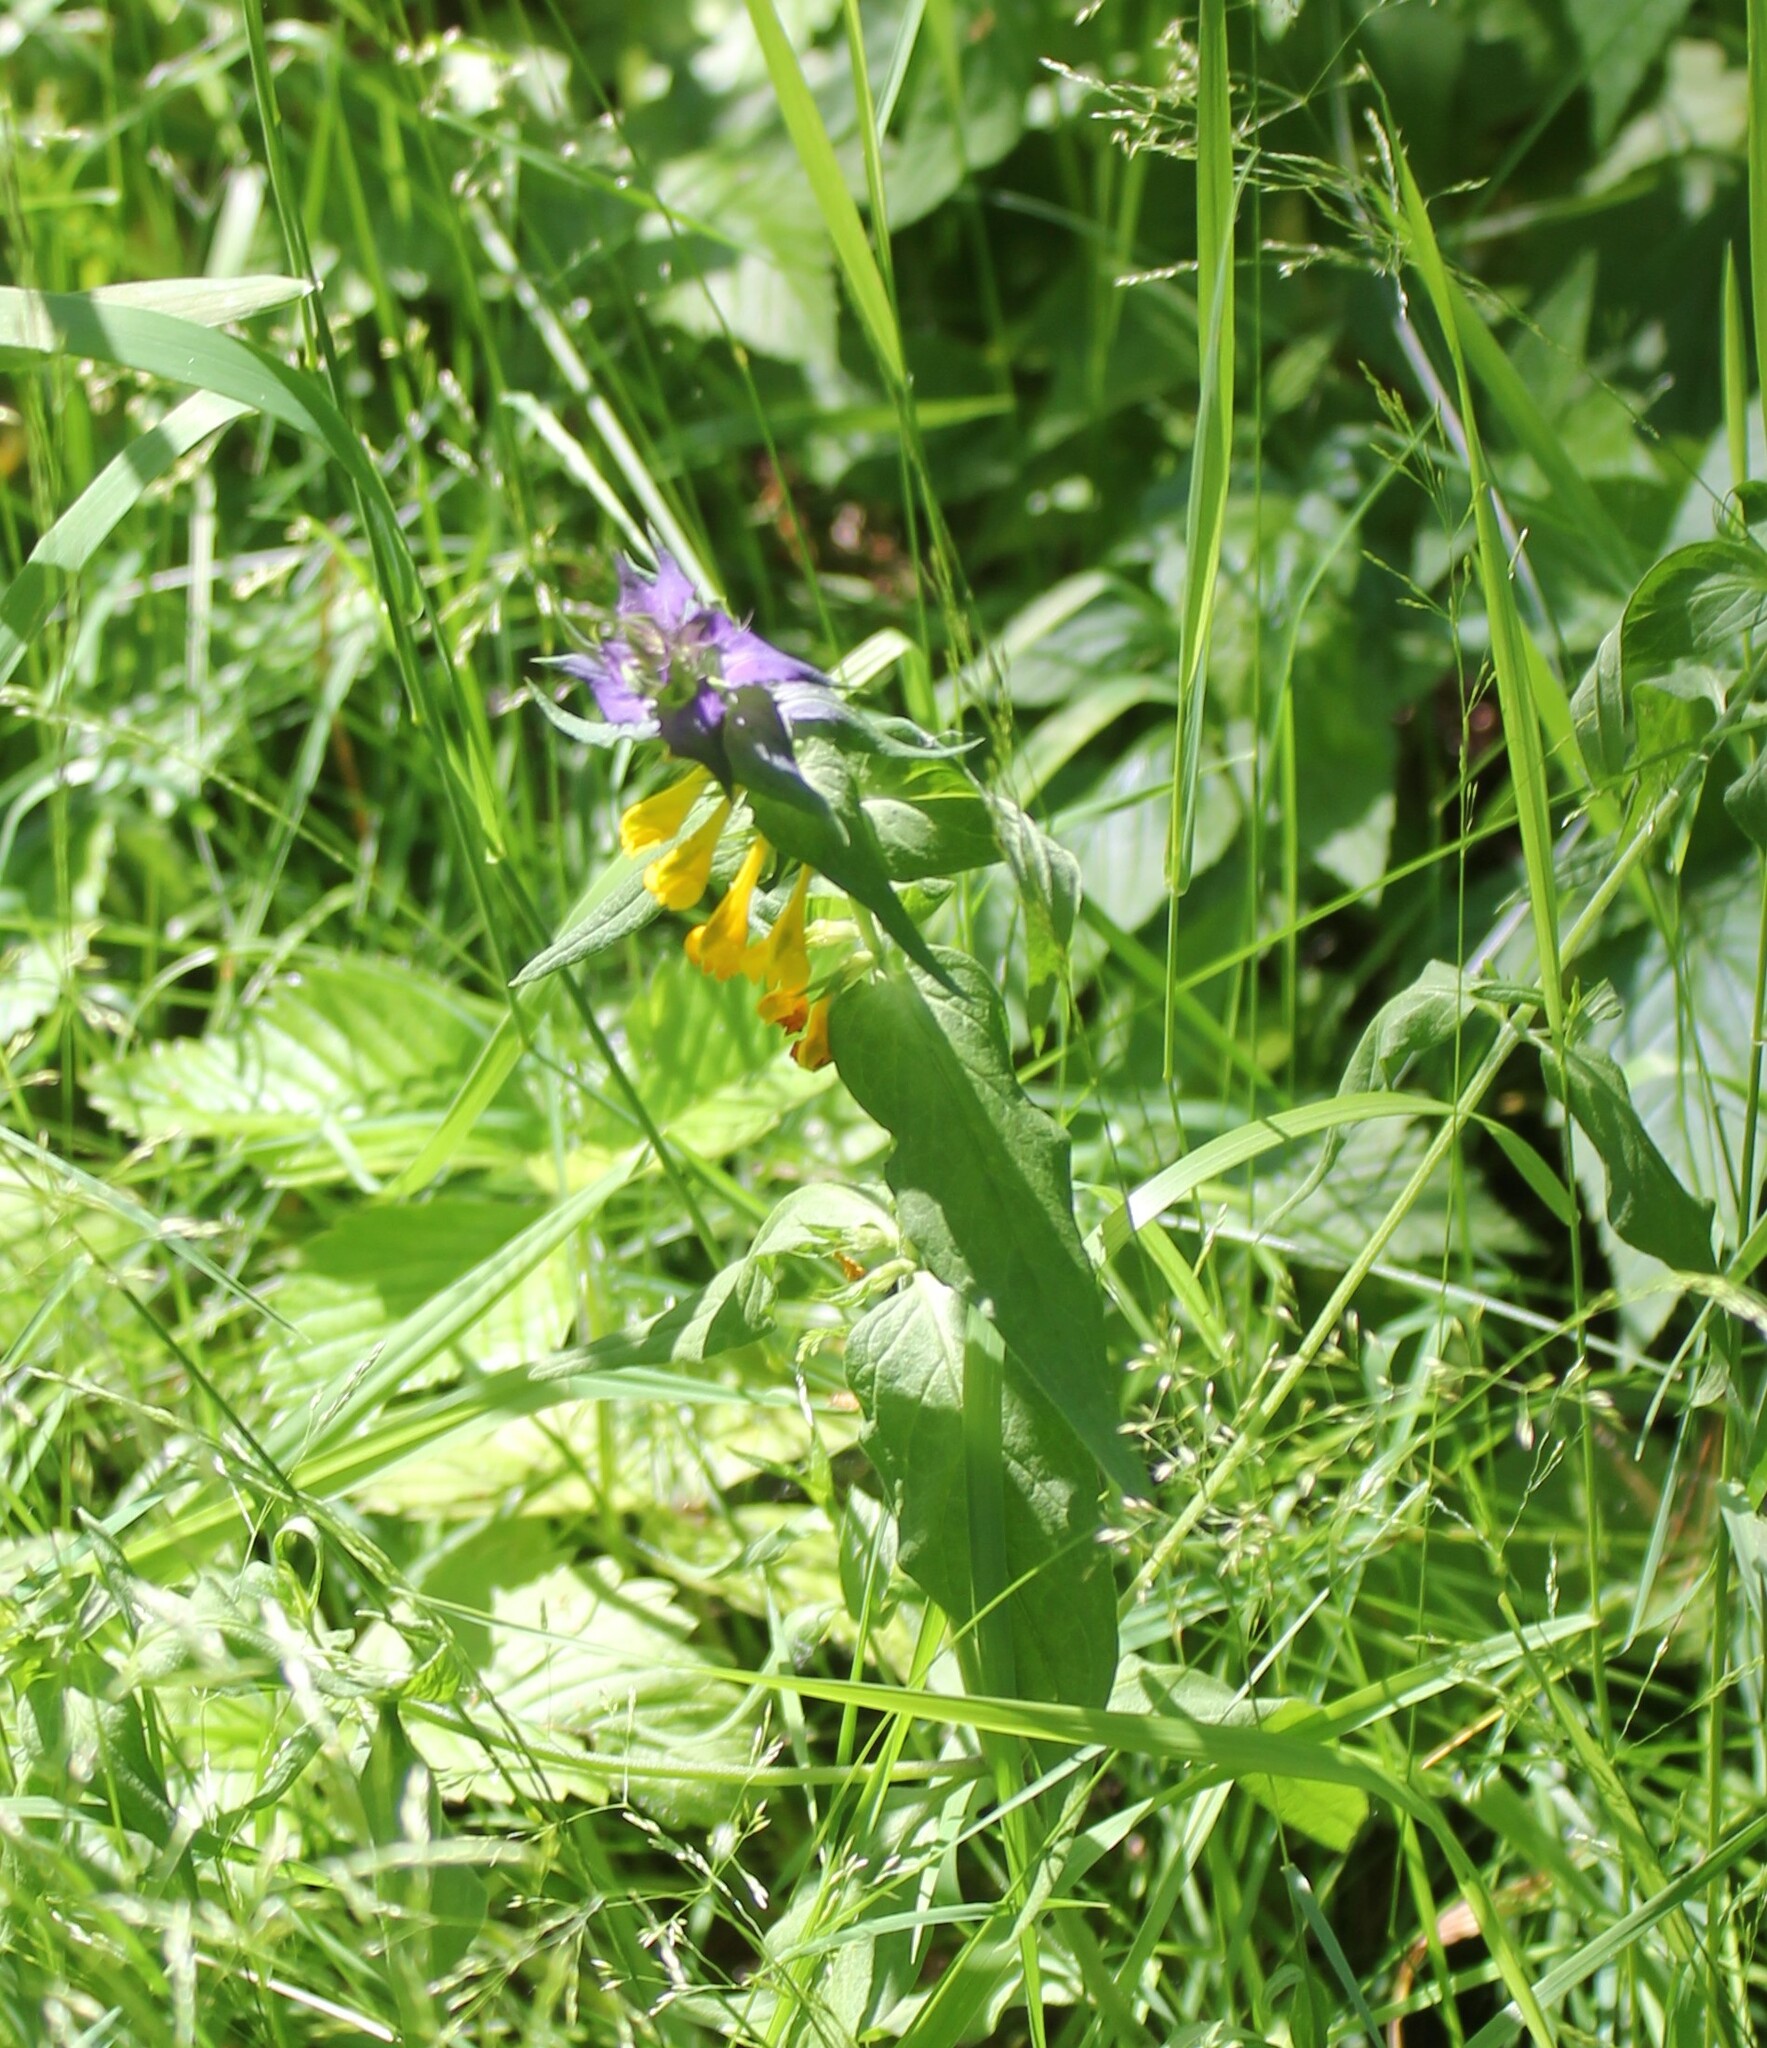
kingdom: Plantae
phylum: Tracheophyta
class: Magnoliopsida
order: Lamiales
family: Orobanchaceae
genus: Melampyrum
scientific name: Melampyrum nemorosum
